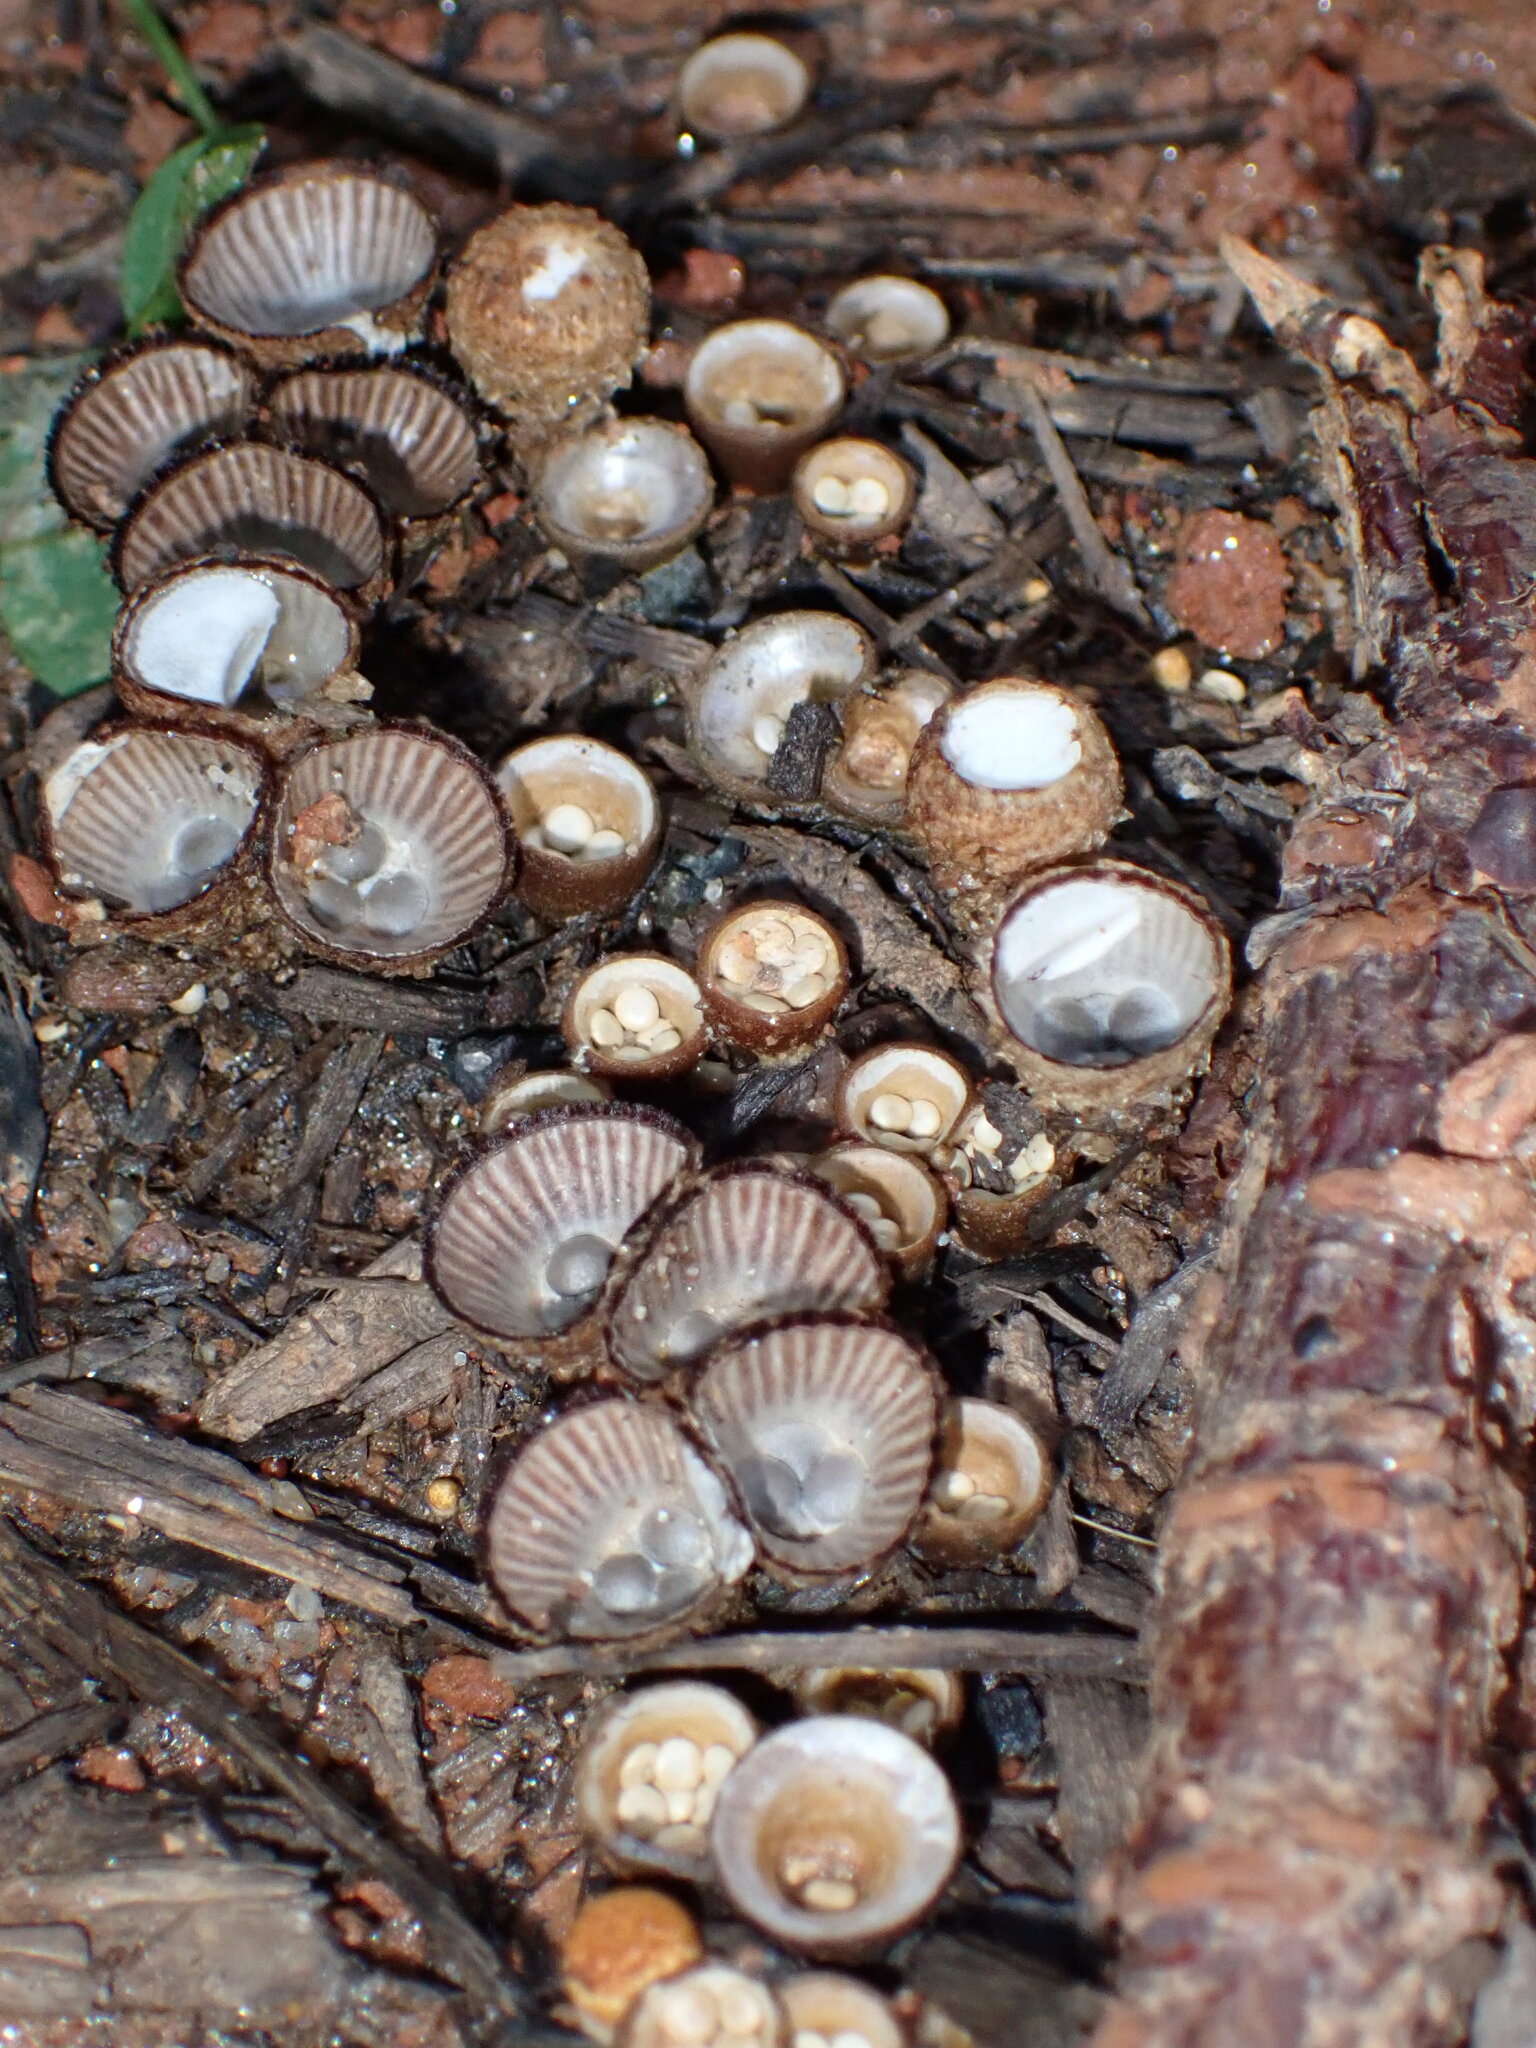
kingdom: Fungi
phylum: Basidiomycota
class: Agaricomycetes
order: Agaricales
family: Agaricaceae
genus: Cyathus
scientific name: Cyathus striatus
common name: Fluted bird's nest
